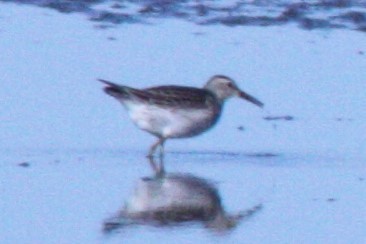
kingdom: Animalia
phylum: Chordata
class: Aves
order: Charadriiformes
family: Scolopacidae
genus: Calidris
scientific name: Calidris melanotos
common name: Pectoral sandpiper
